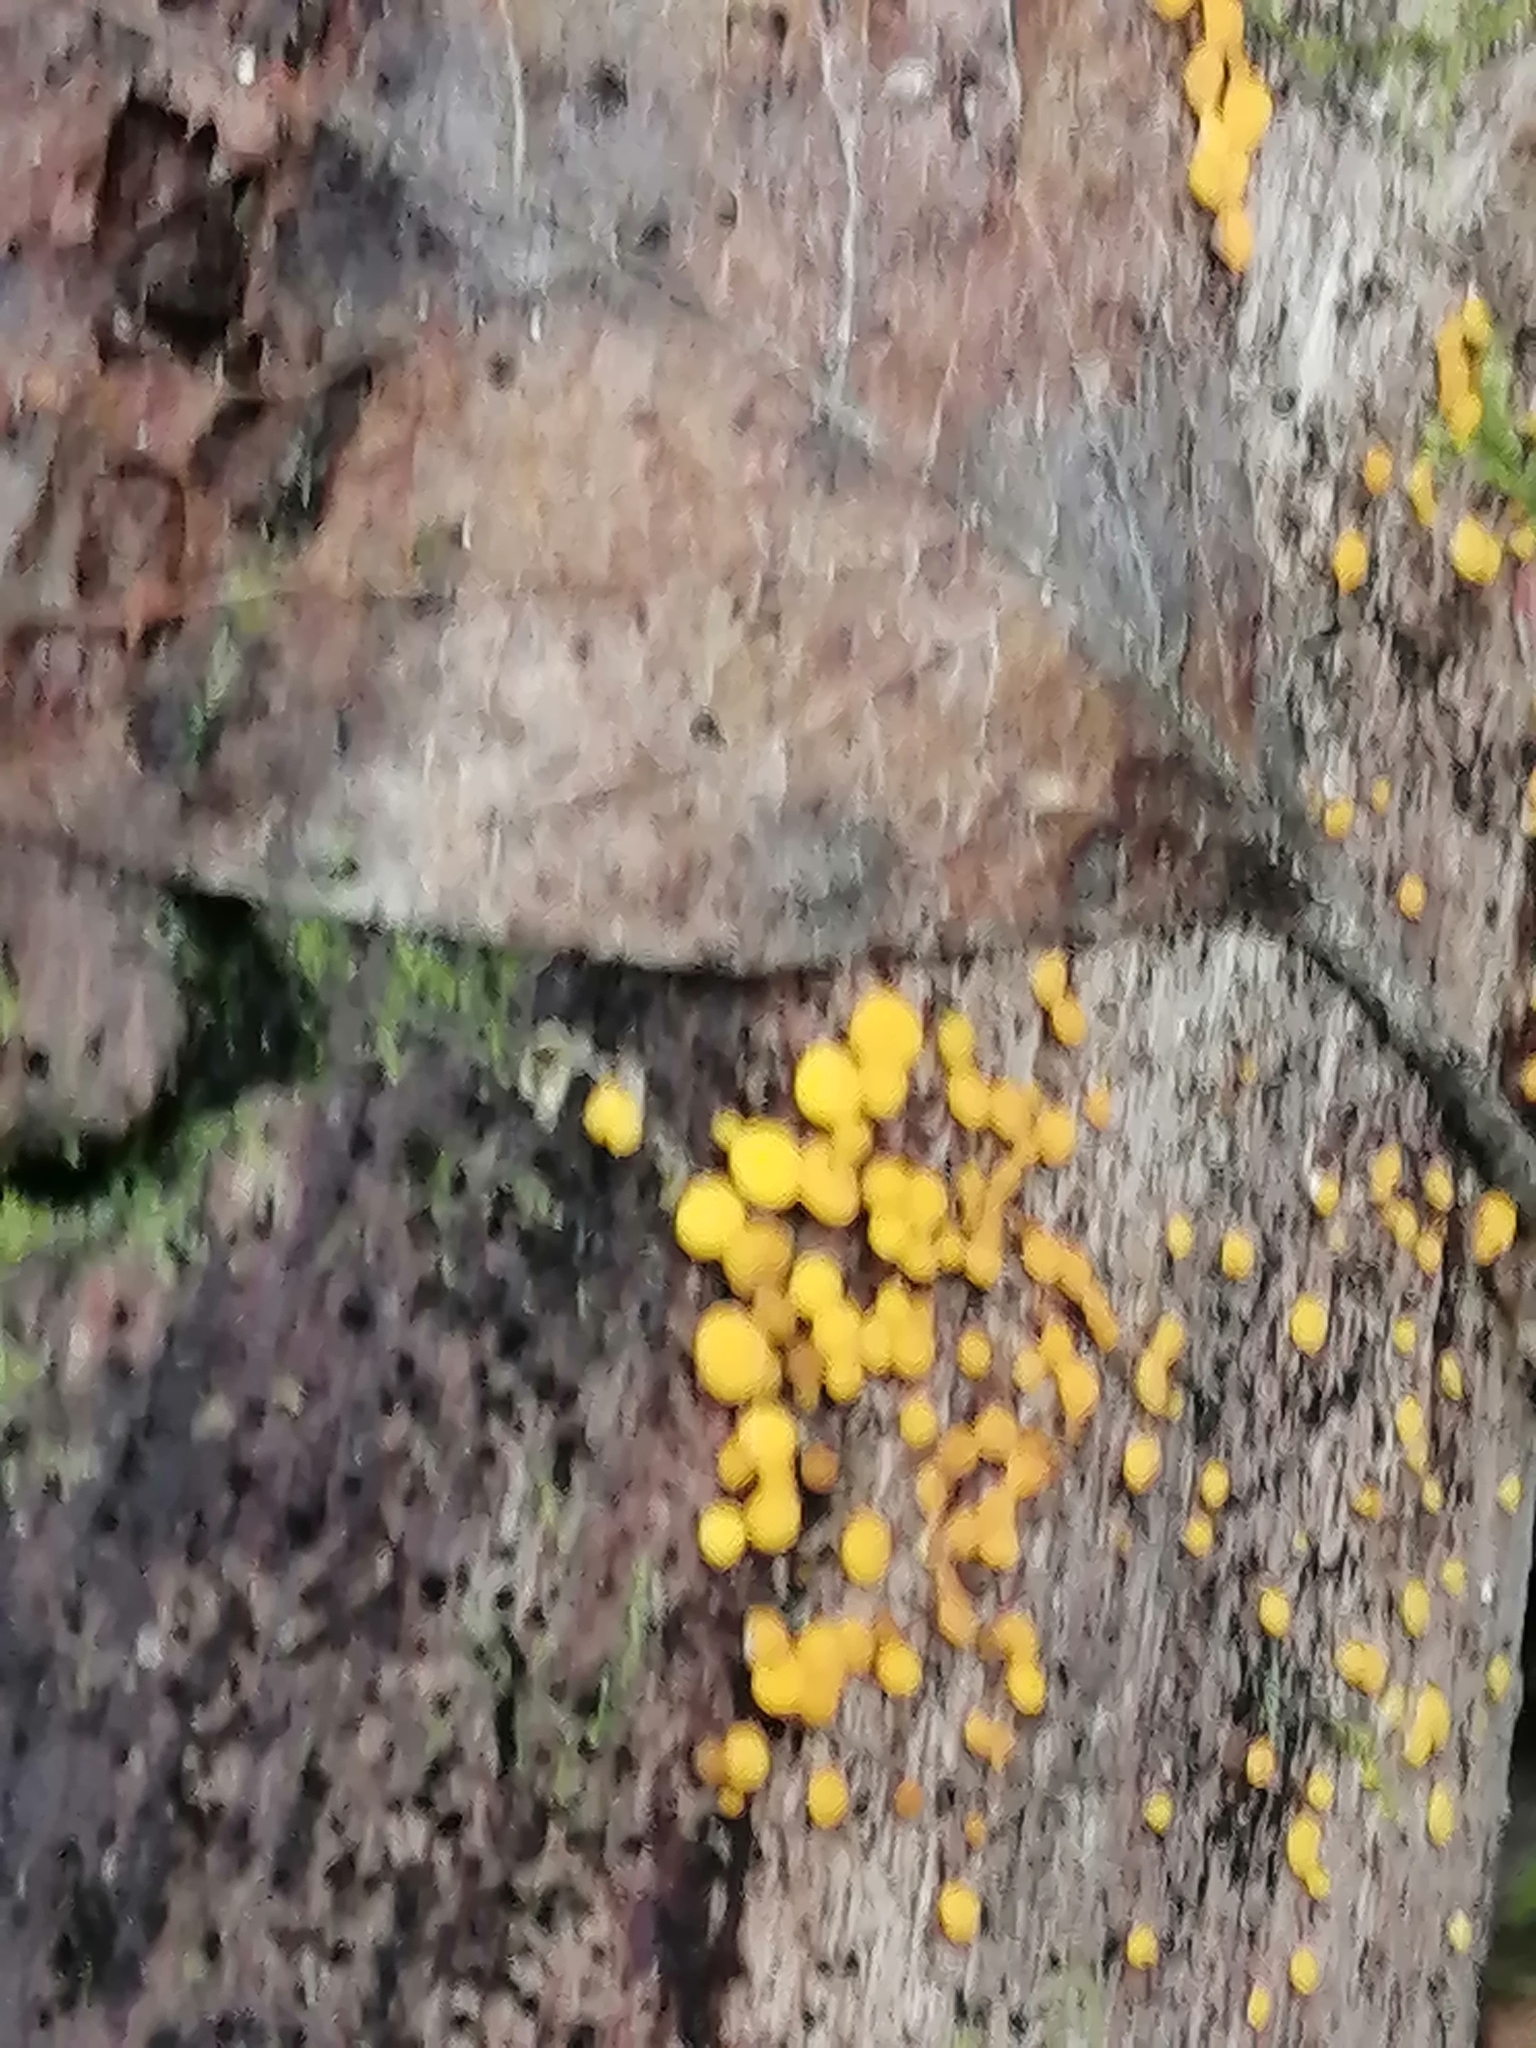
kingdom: Fungi
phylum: Ascomycota
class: Leotiomycetes
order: Helotiales
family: Pezizellaceae
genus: Calycina
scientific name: Calycina citrina
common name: Yellow fairy cups
